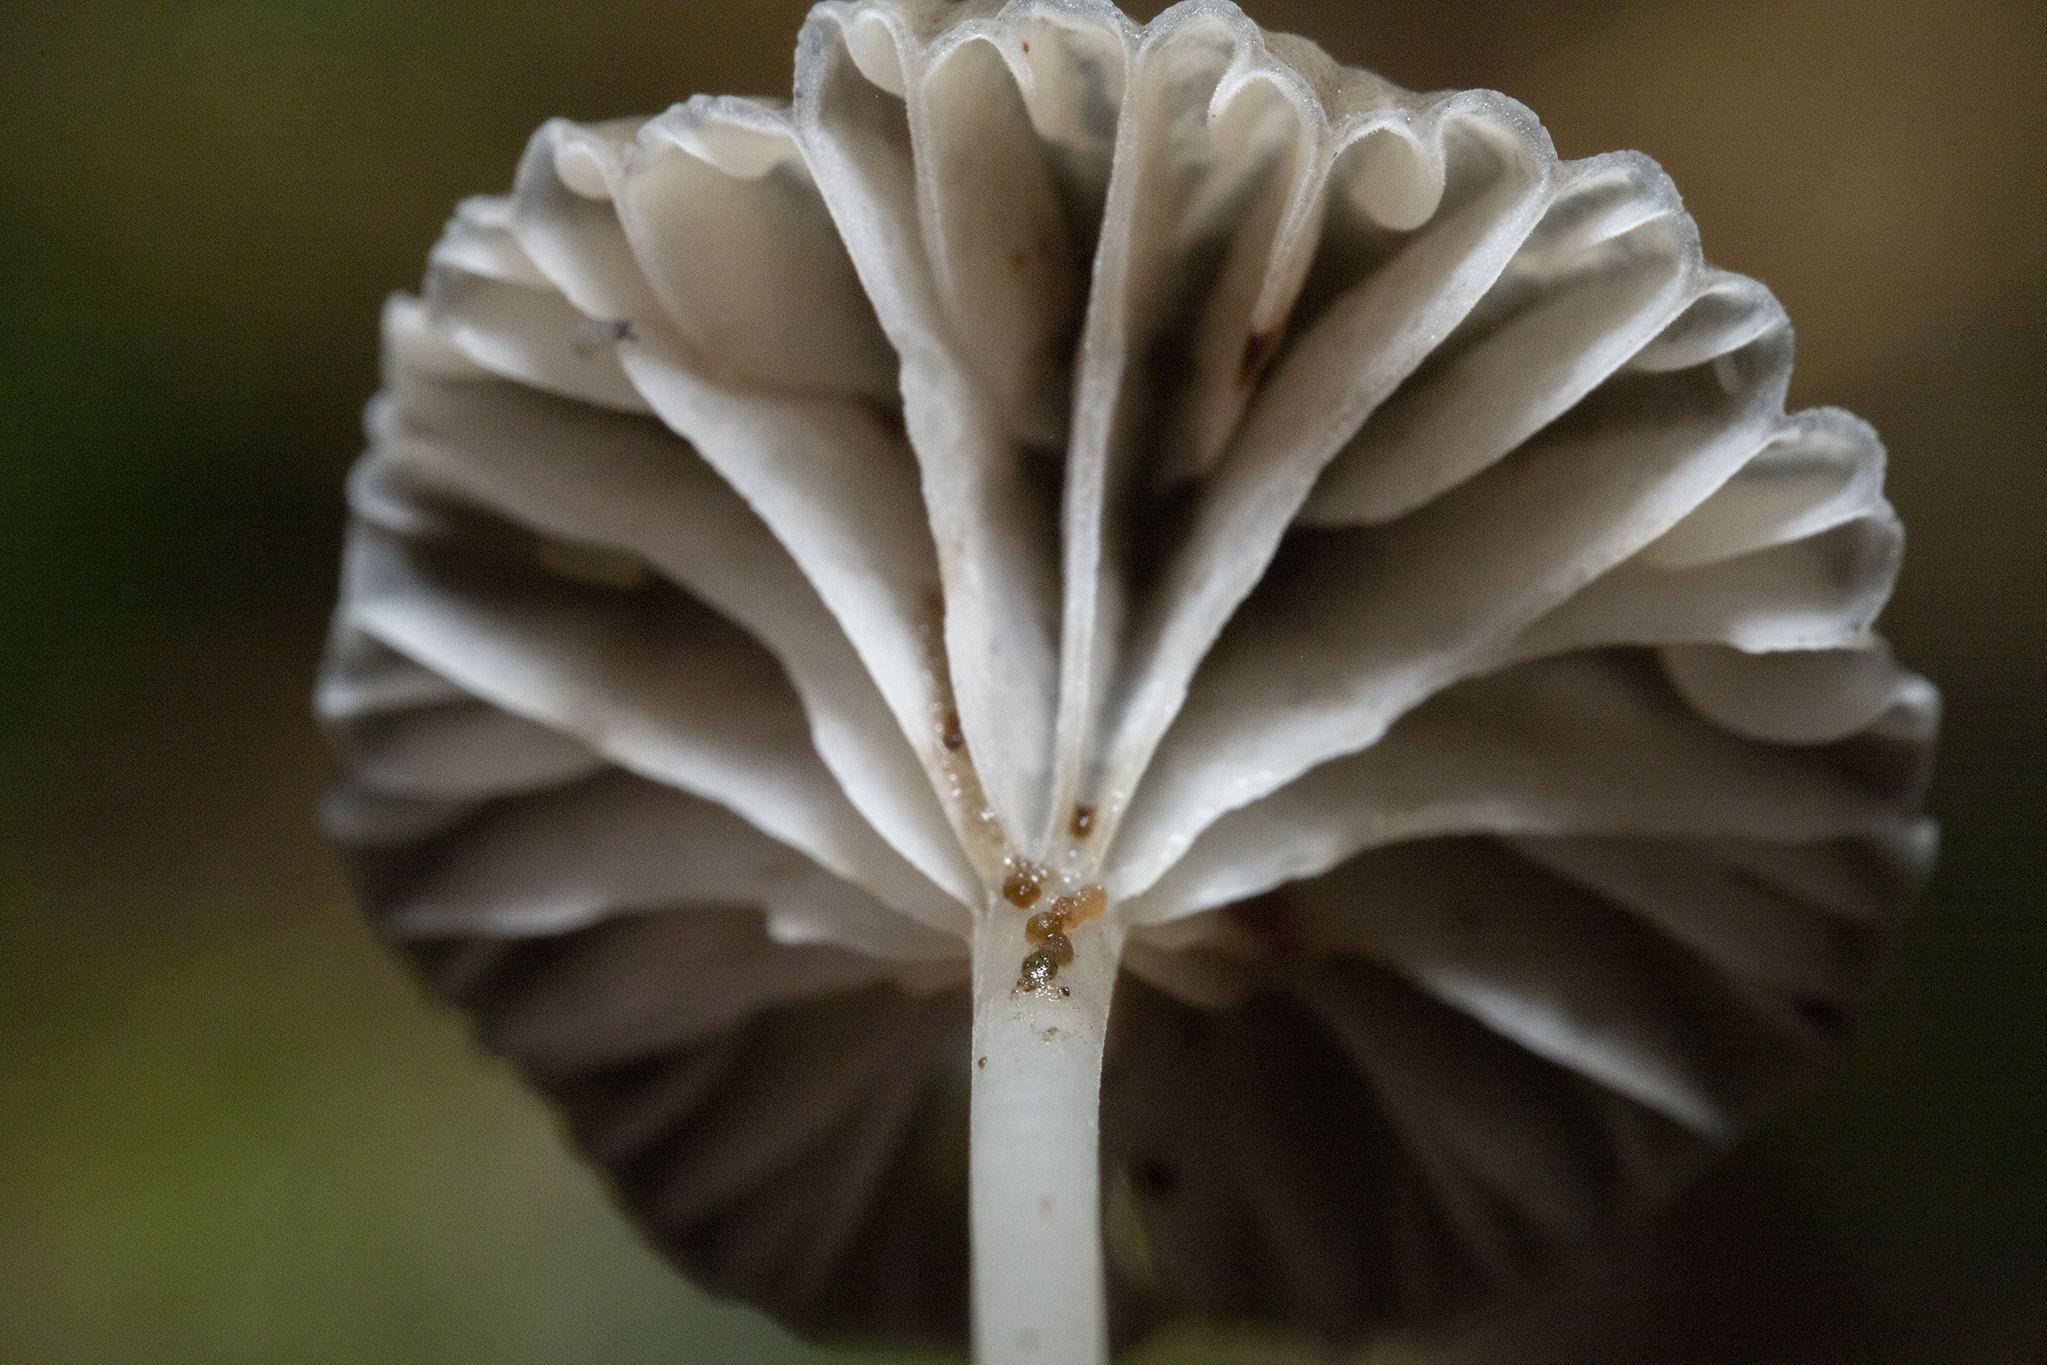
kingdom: Fungi
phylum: Basidiomycota
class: Agaricomycetes
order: Agaricales
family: Mycenaceae
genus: Mycena
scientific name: Mycena helminthobasis
